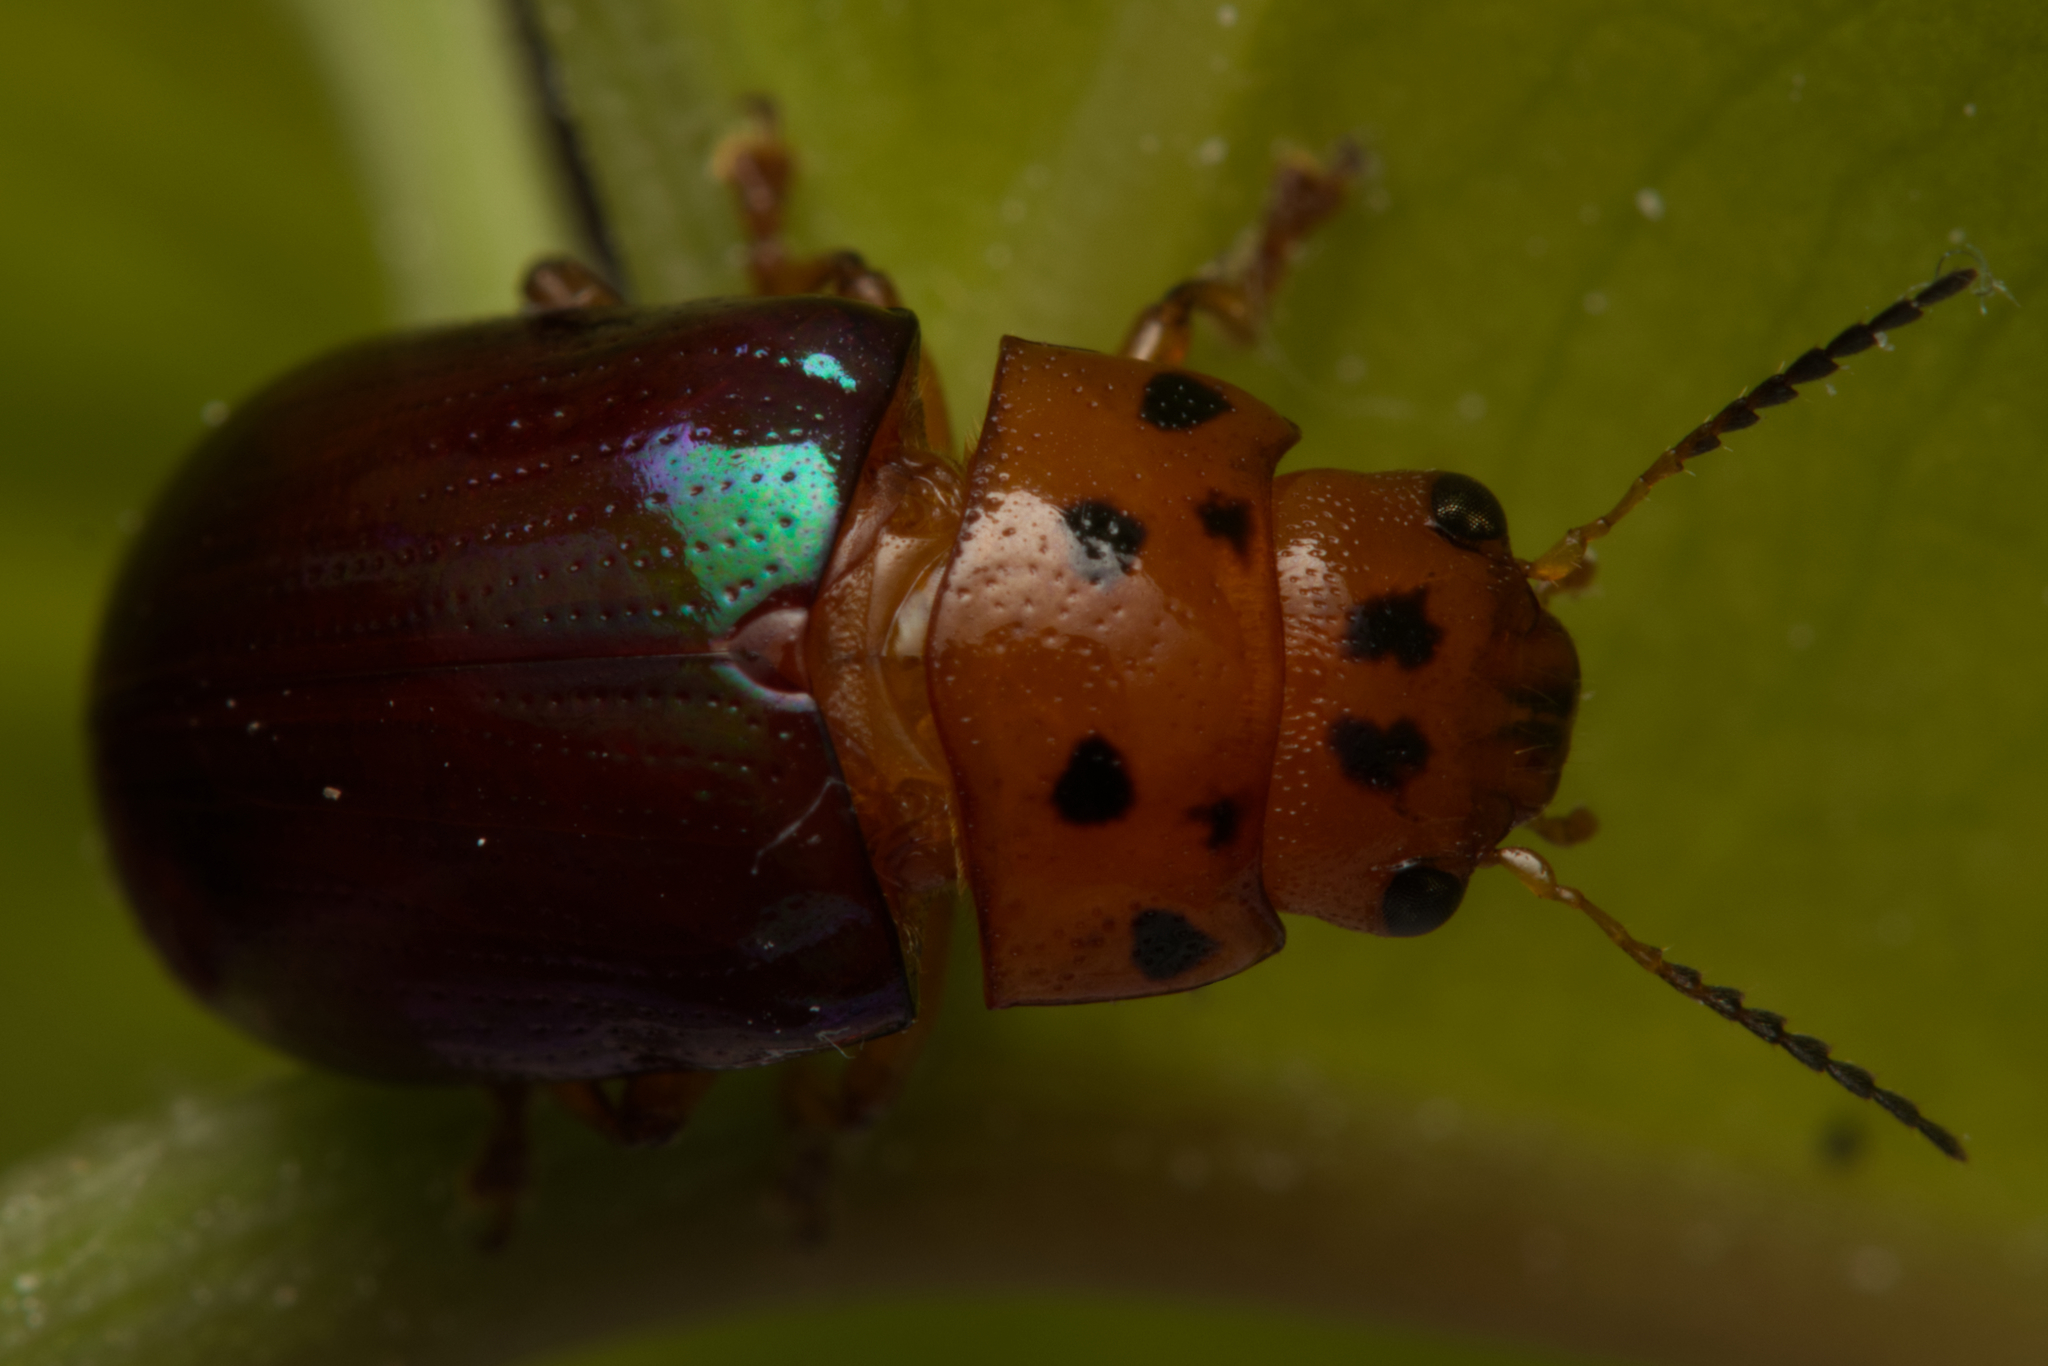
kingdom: Animalia
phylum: Arthropoda
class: Insecta
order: Coleoptera
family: Chrysomelidae
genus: Platymela
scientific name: Platymela
